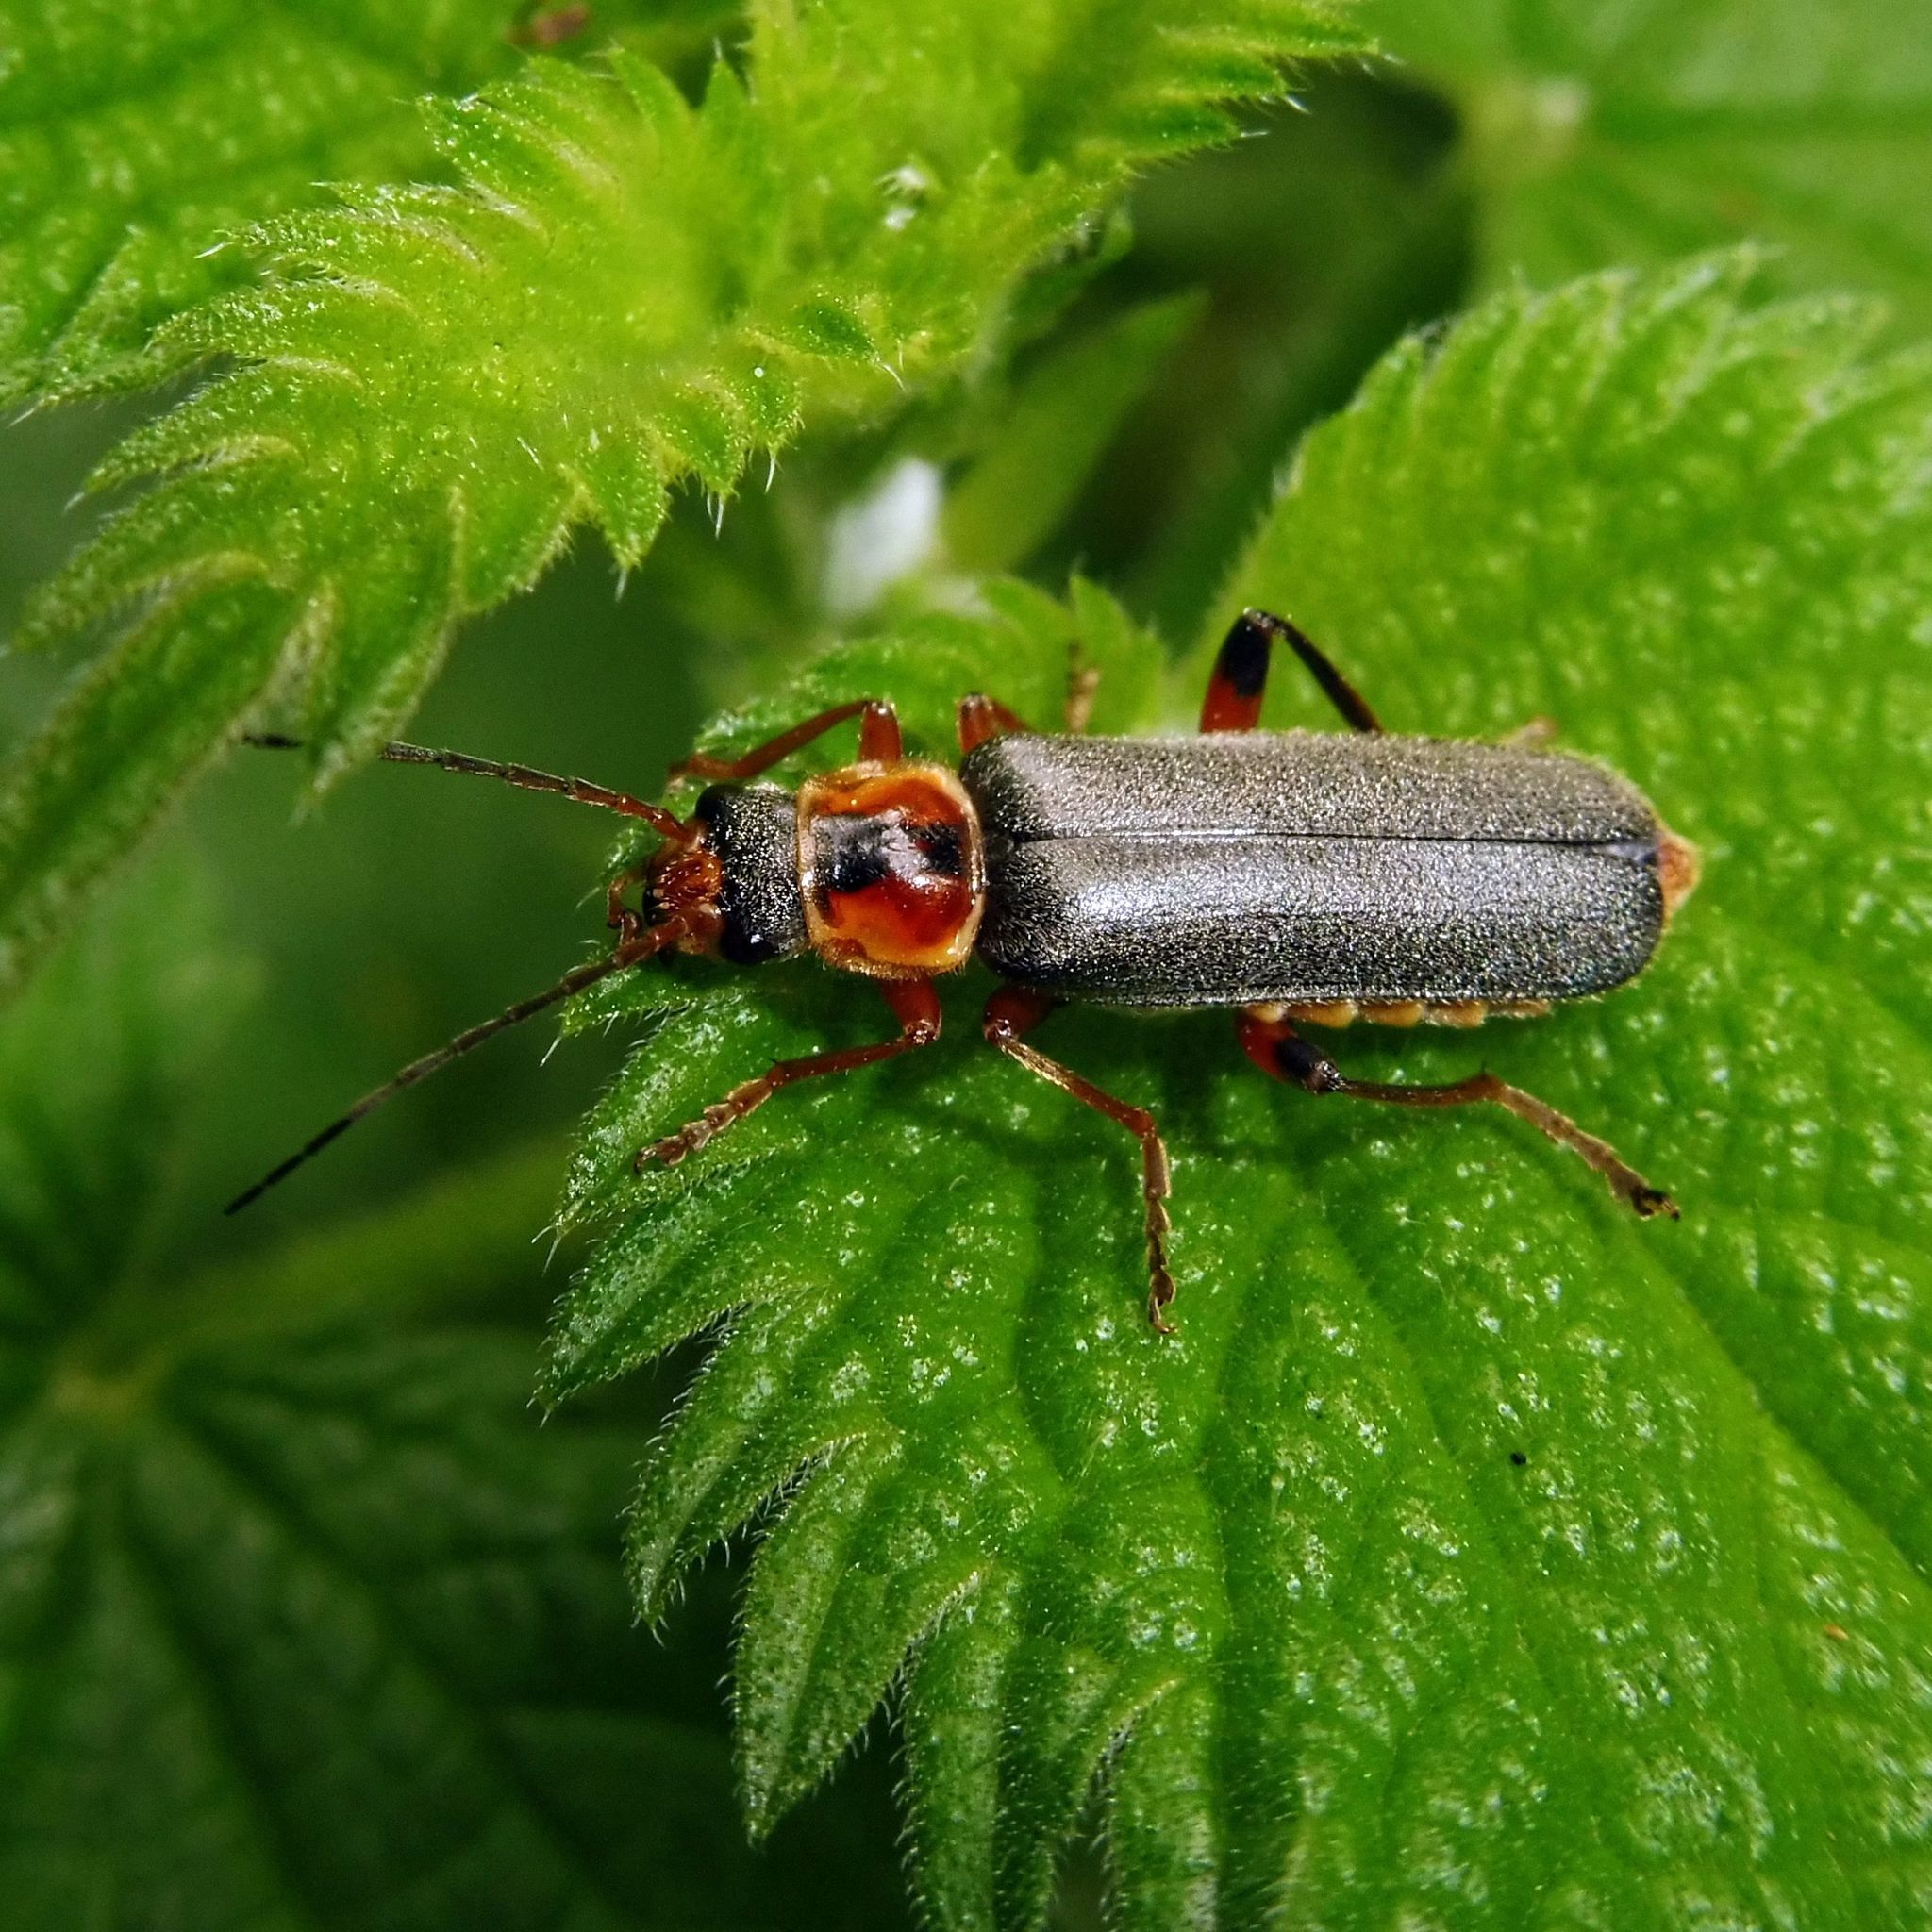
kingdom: Animalia
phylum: Arthropoda
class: Insecta
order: Coleoptera
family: Cantharidae
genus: Cantharis
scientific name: Cantharis nigricans
